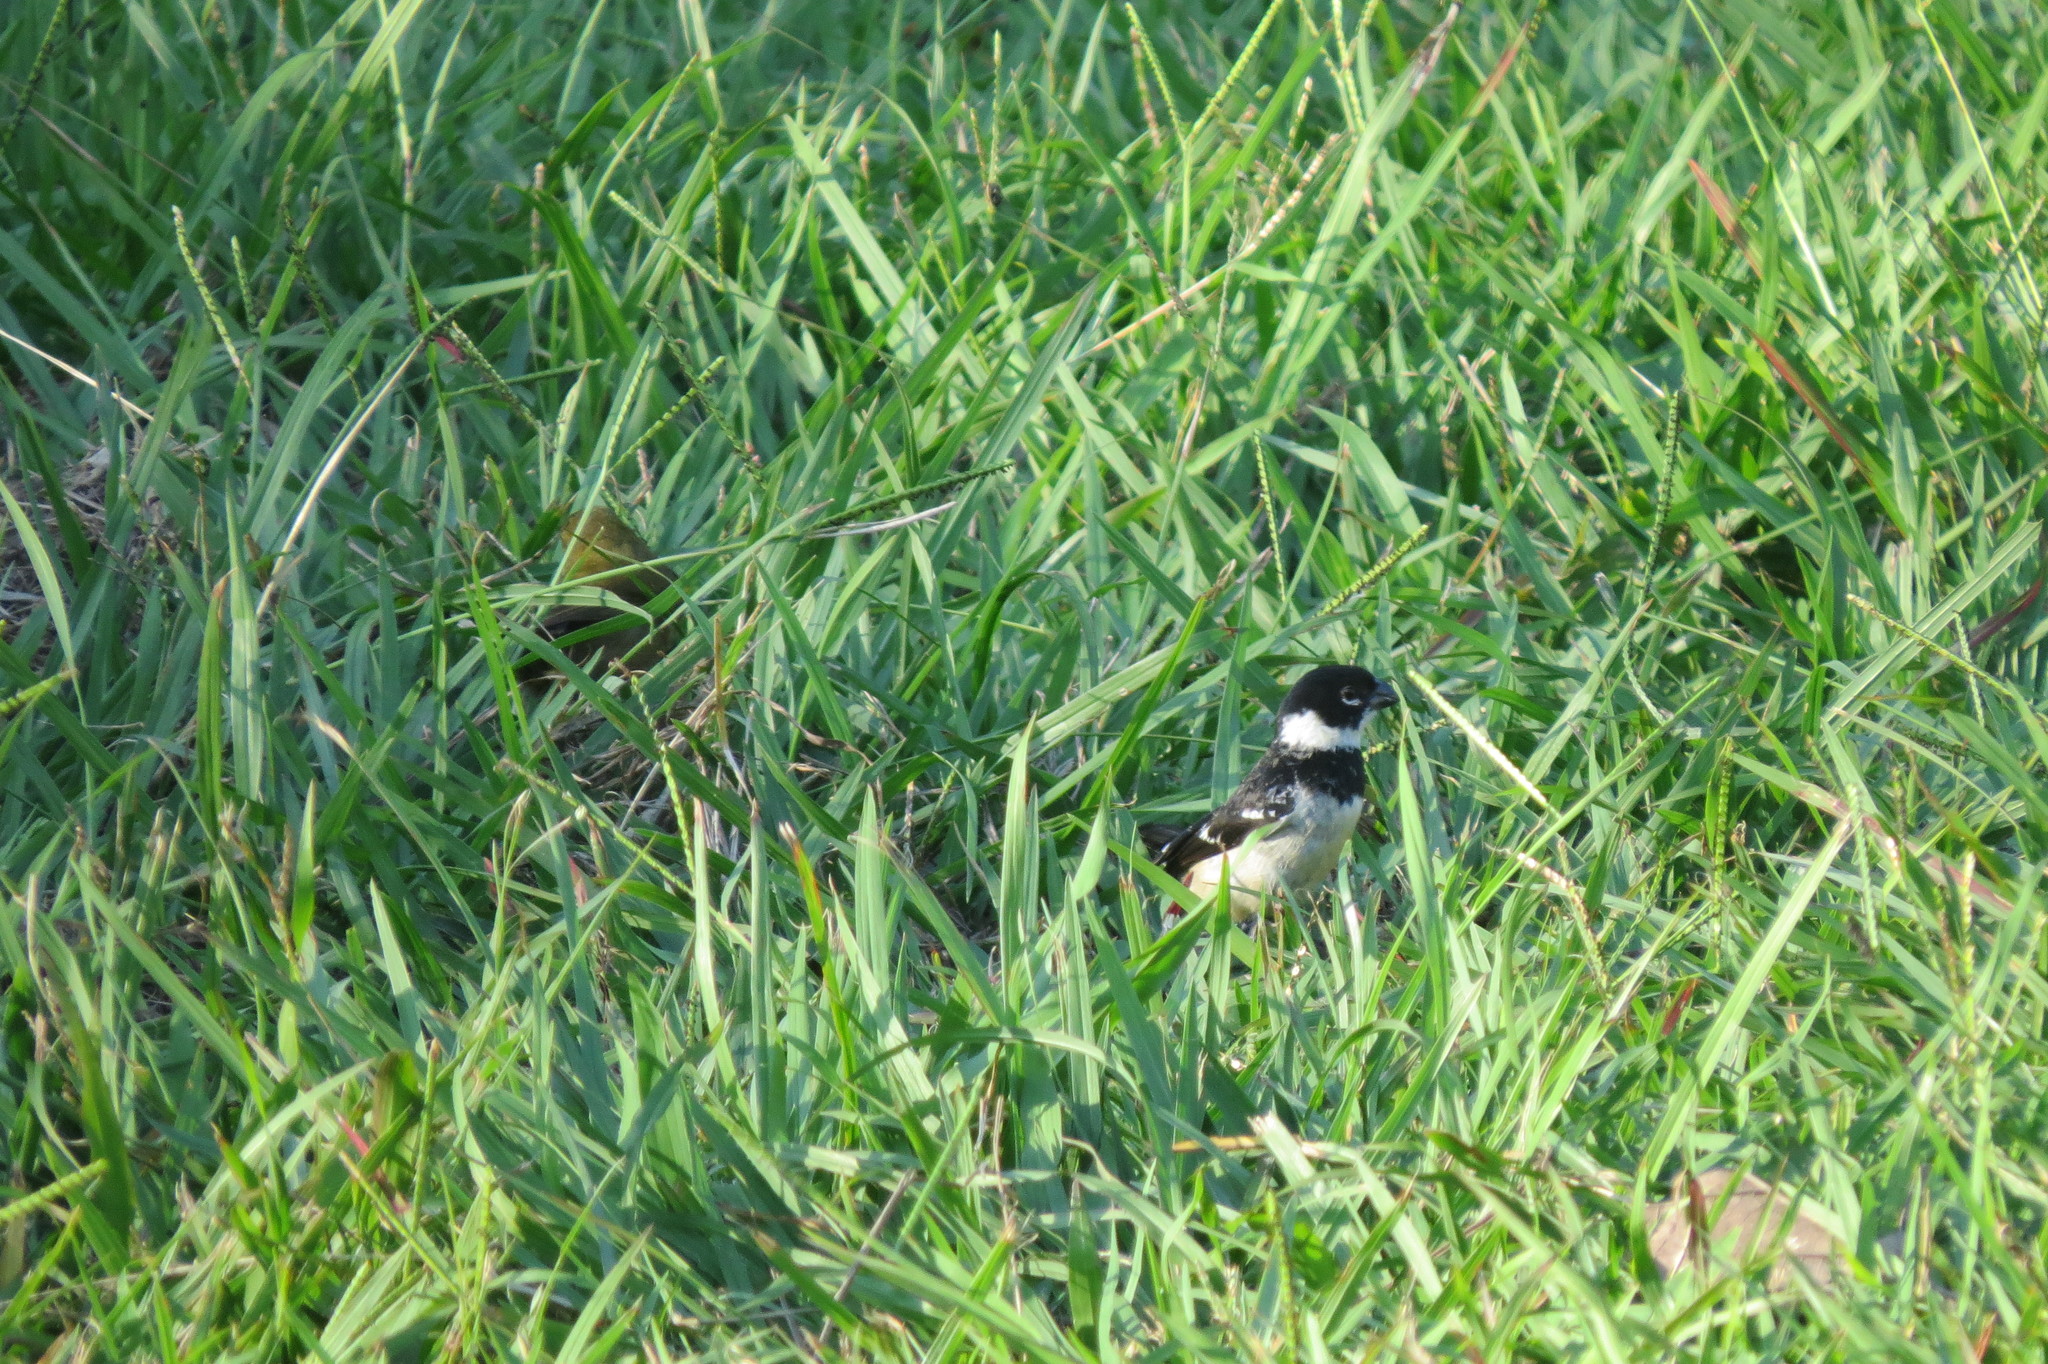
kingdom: Animalia
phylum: Chordata
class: Aves
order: Passeriformes
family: Thraupidae
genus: Sporophila
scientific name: Sporophila morelleti
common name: Morelet's seedeater
